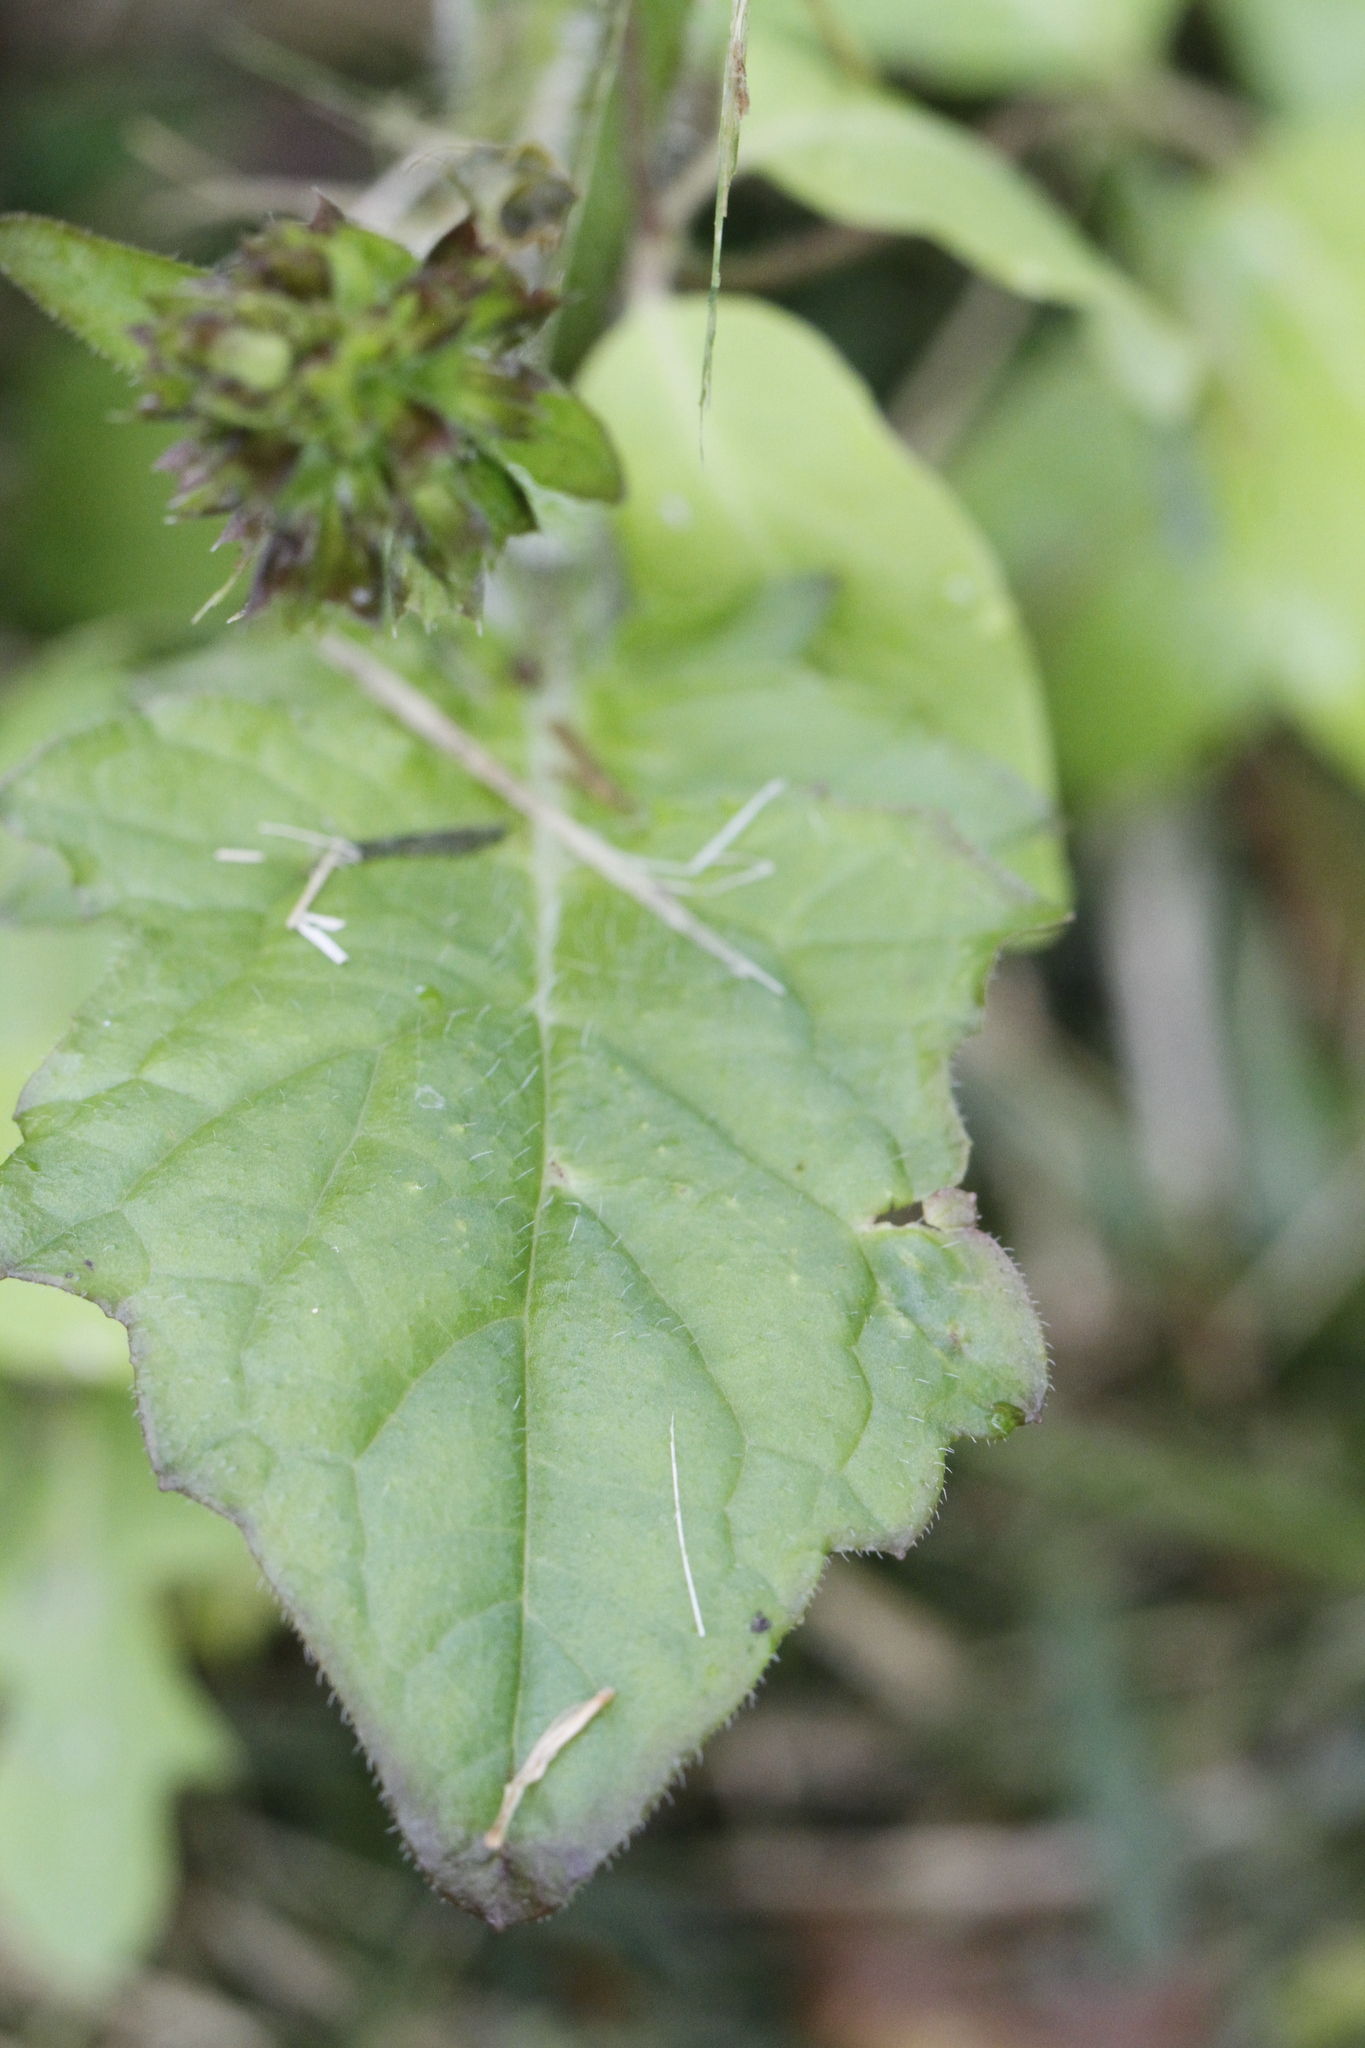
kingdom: Plantae
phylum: Tracheophyta
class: Magnoliopsida
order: Lamiales
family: Lamiaceae
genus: Salvia
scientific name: Salvia lyrata
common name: Cancerweed
